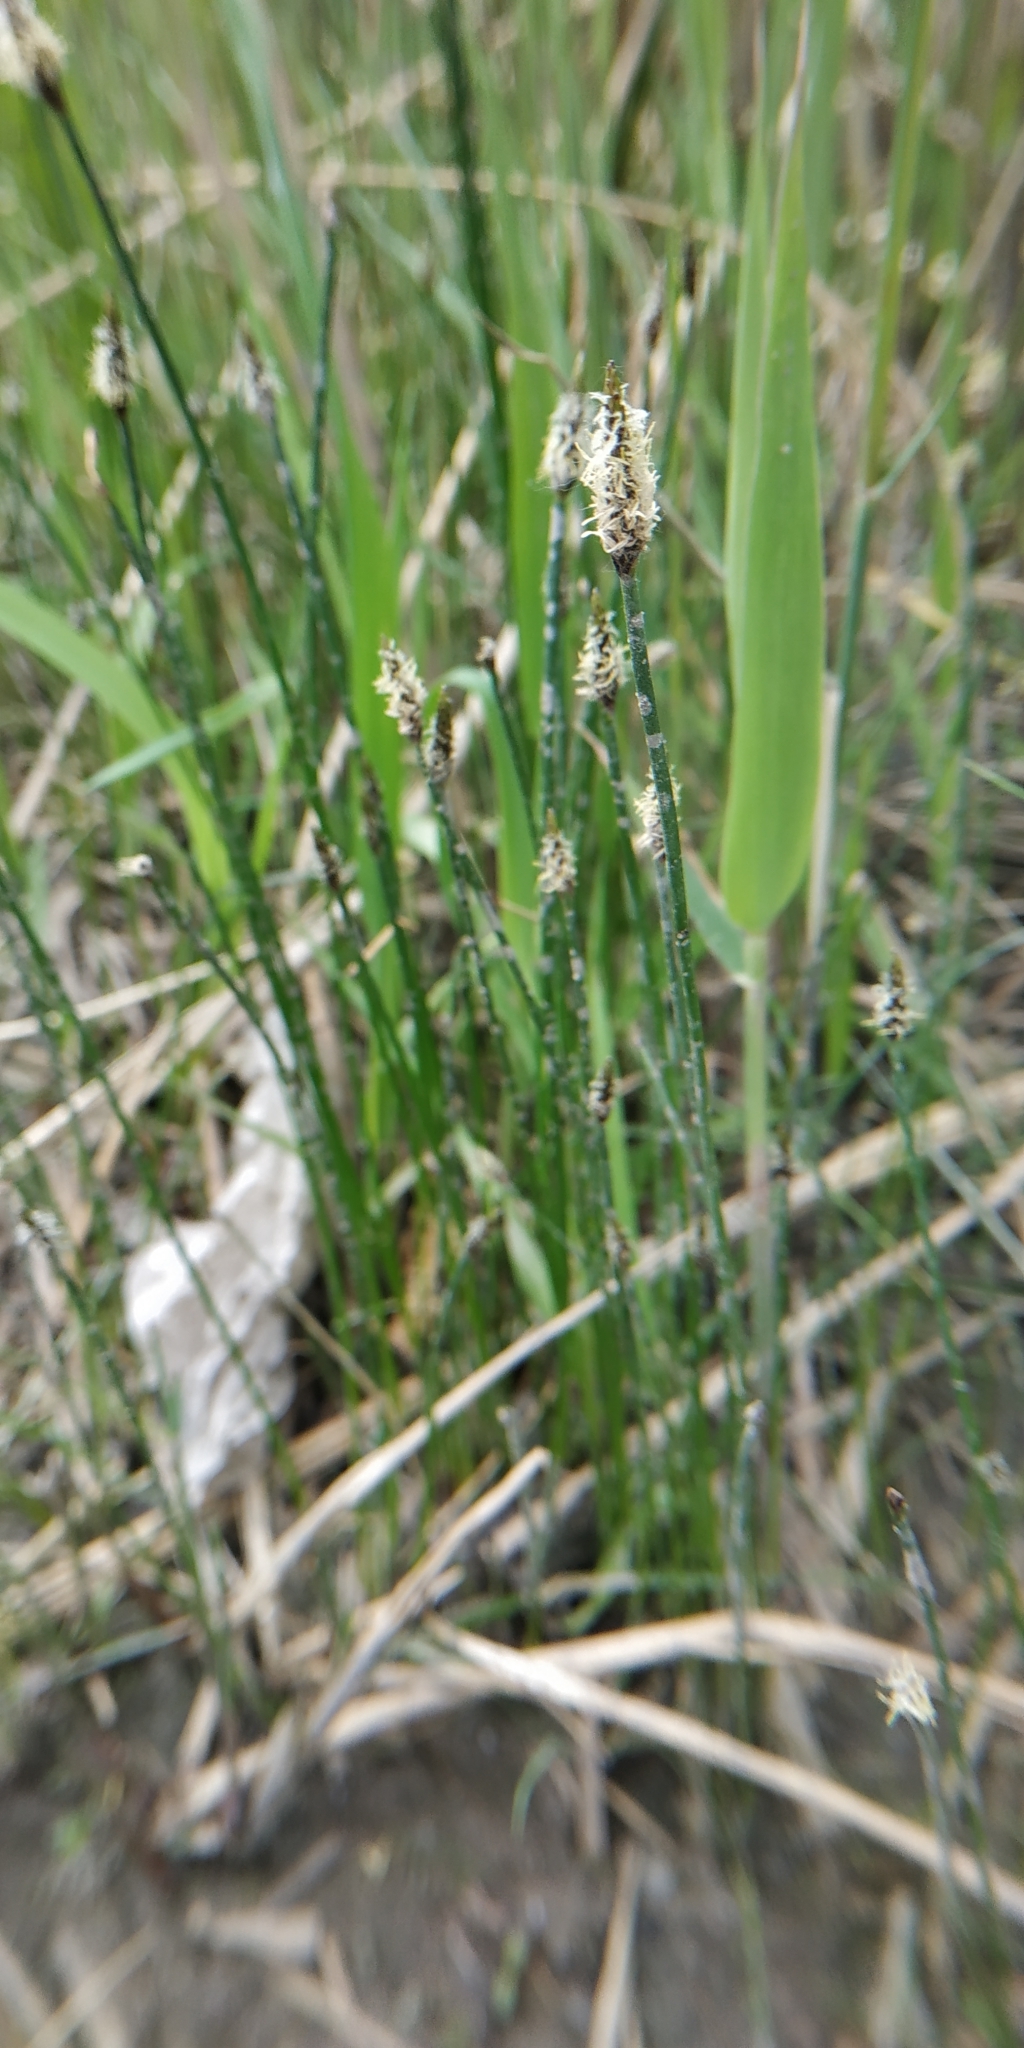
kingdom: Plantae
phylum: Tracheophyta
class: Liliopsida
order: Poales
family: Cyperaceae
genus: Eleocharis
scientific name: Eleocharis palustris
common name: Common spike-rush
